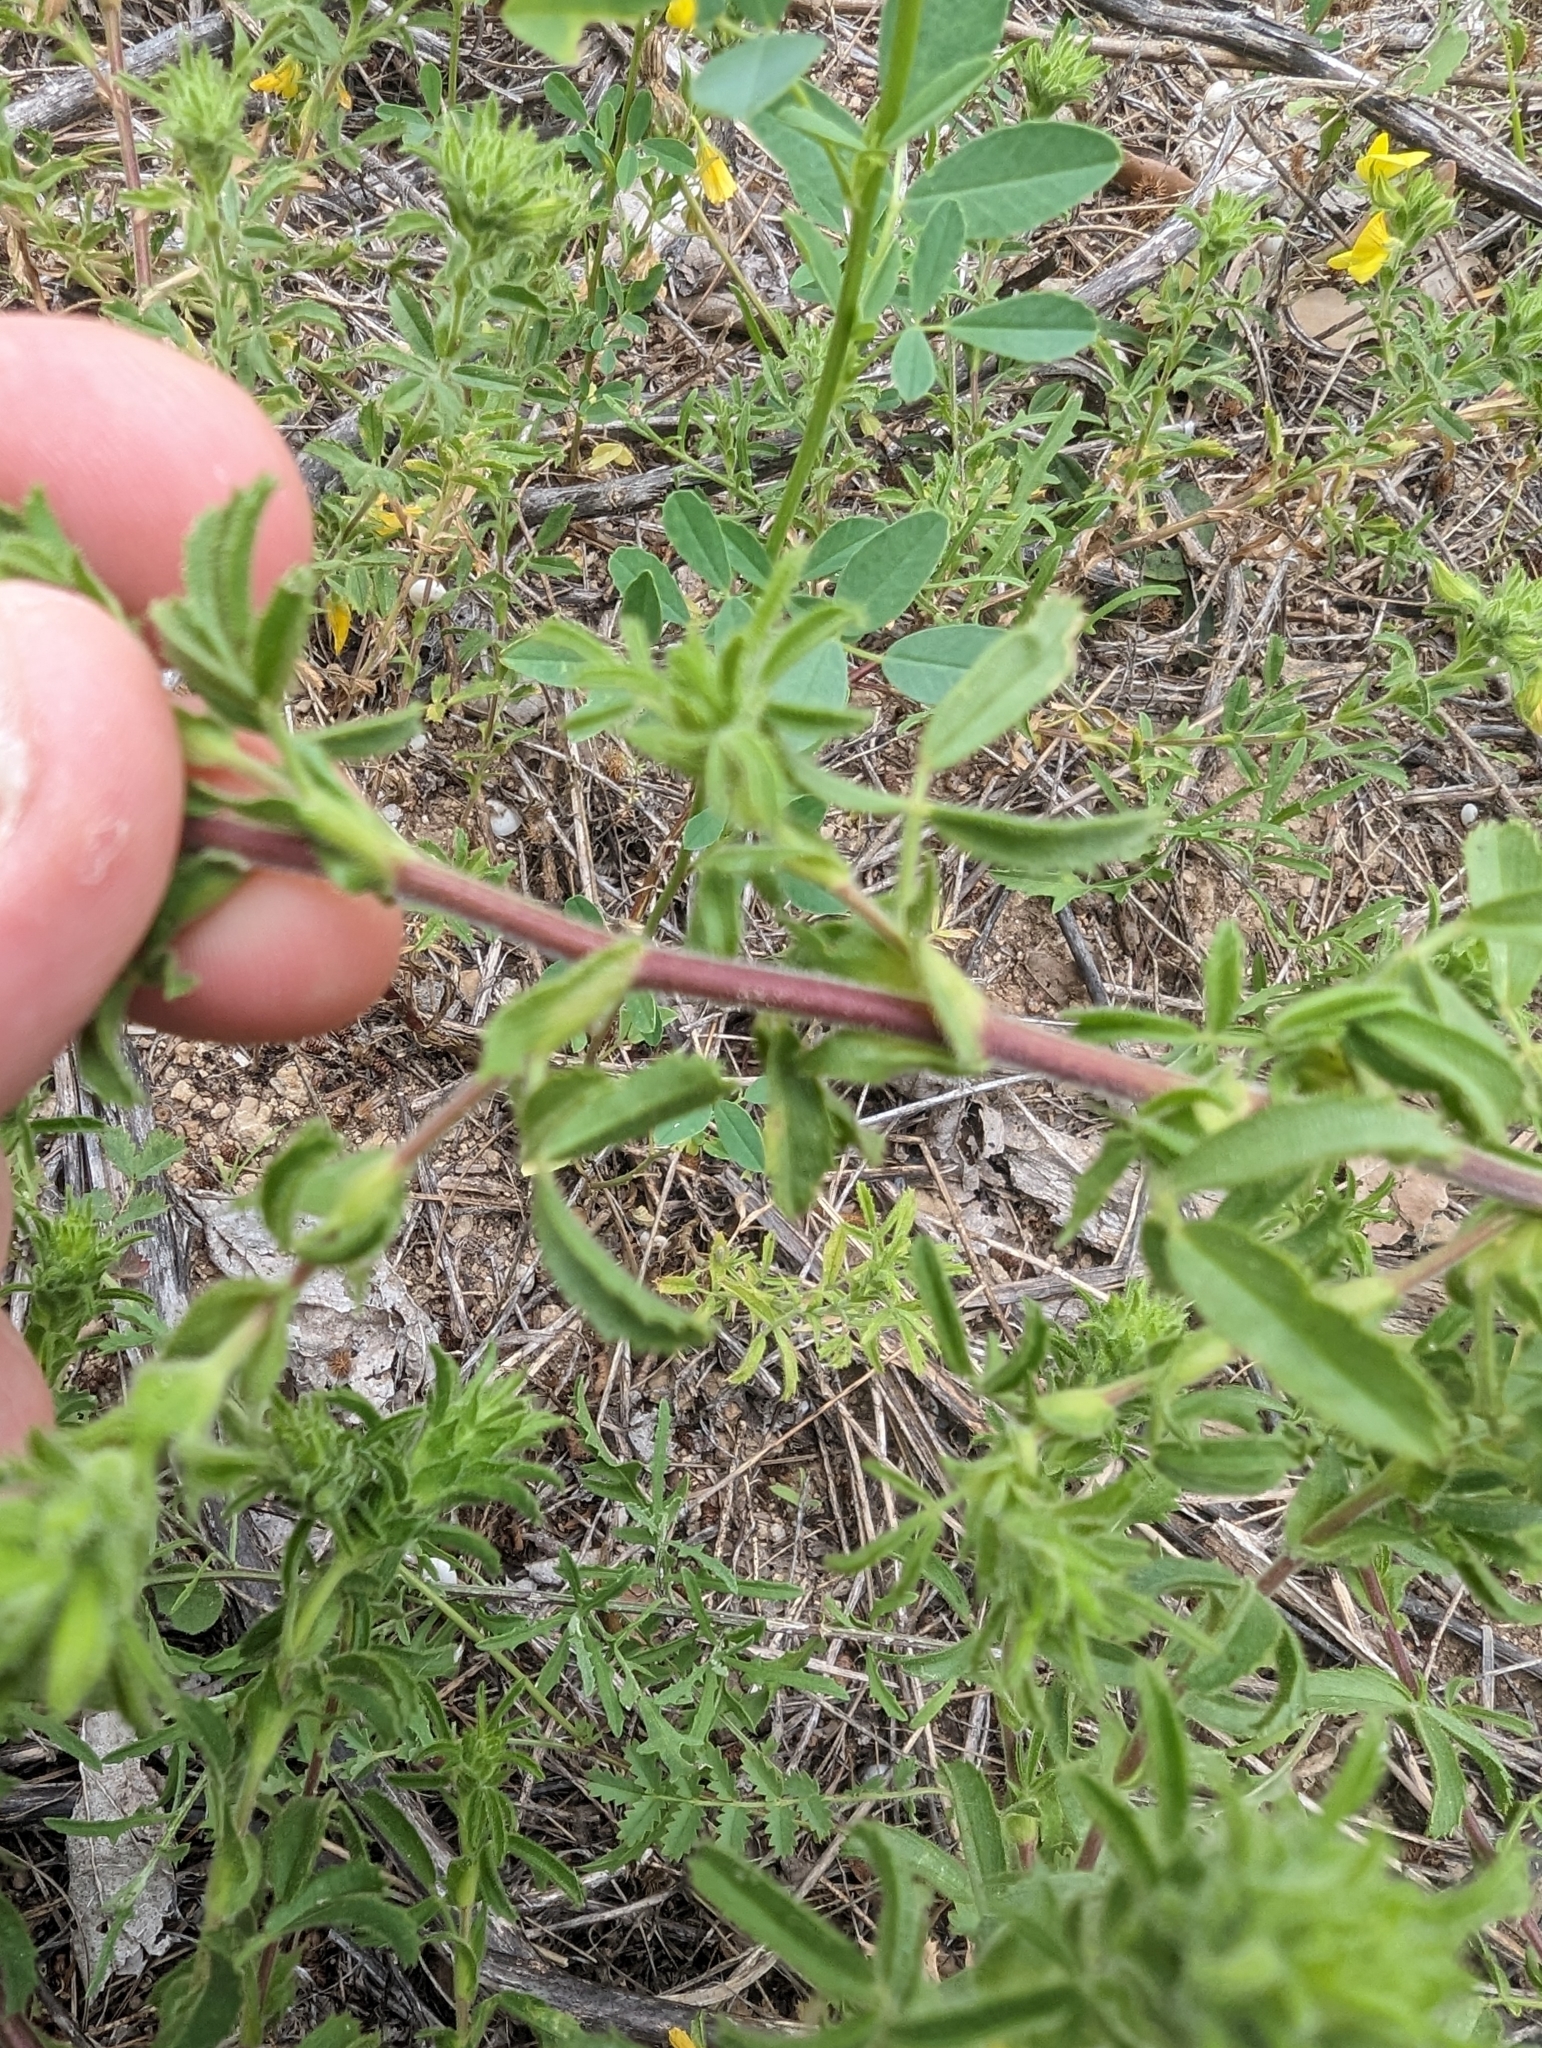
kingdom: Plantae
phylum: Tracheophyta
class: Magnoliopsida
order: Fabales
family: Fabaceae
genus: Ononis
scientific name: Ononis natrix
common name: Yellow restharrow
